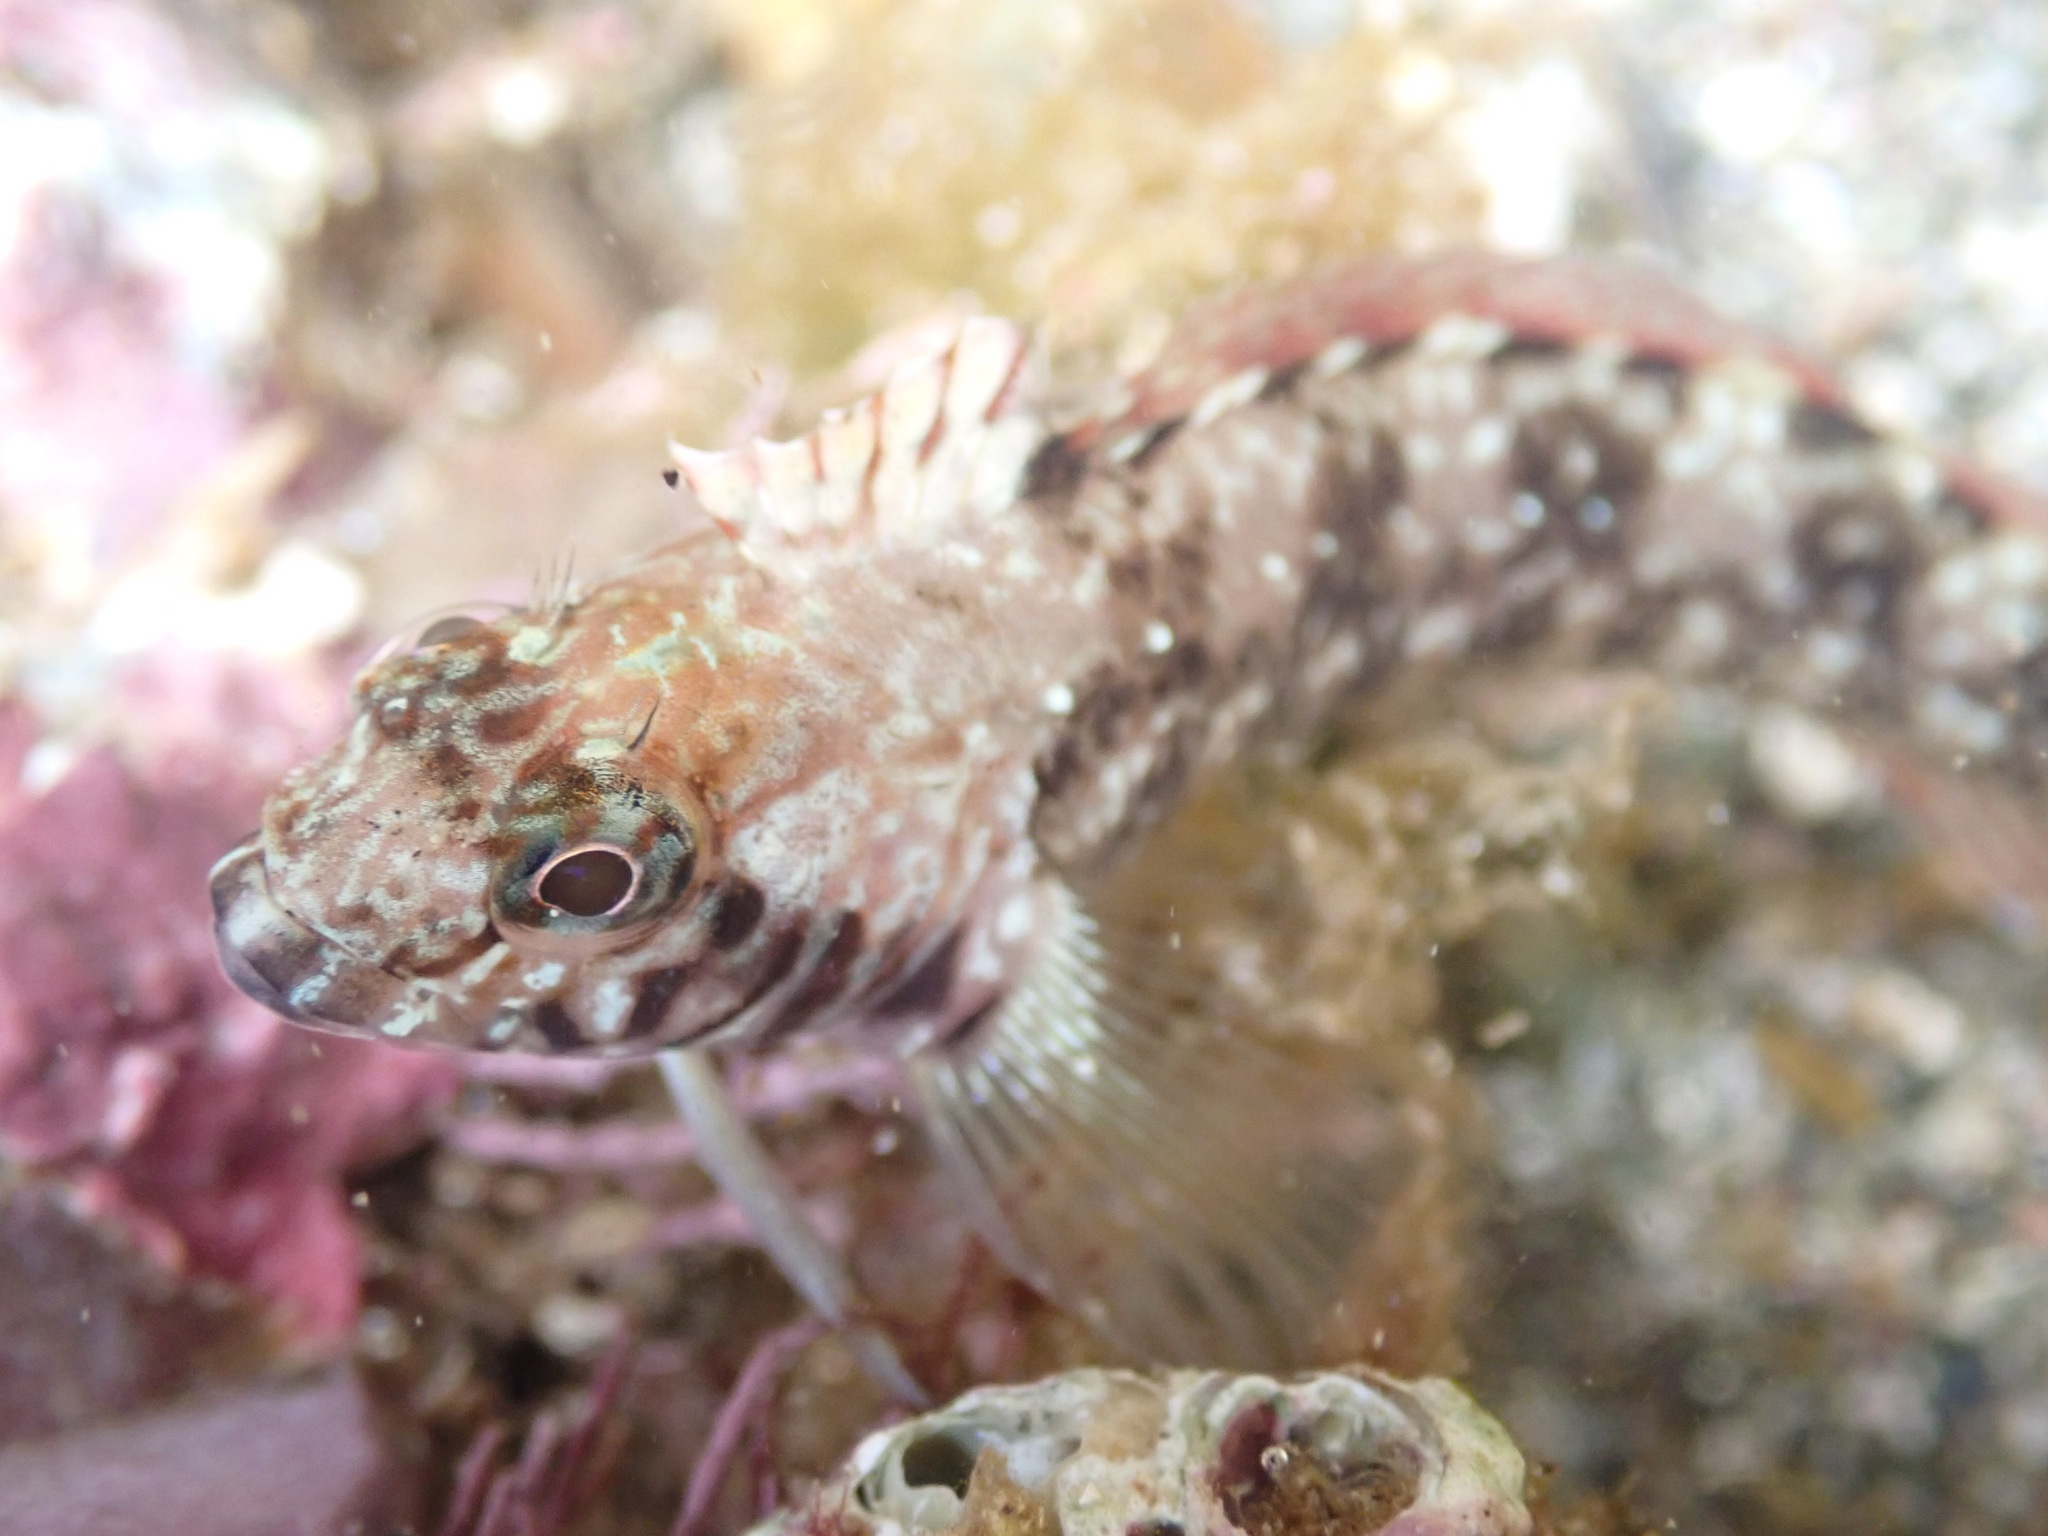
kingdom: Animalia
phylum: Chordata
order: Perciformes
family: Tripterygiidae
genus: Forsterygion
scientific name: Forsterygion lapillum
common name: Common triplefin
